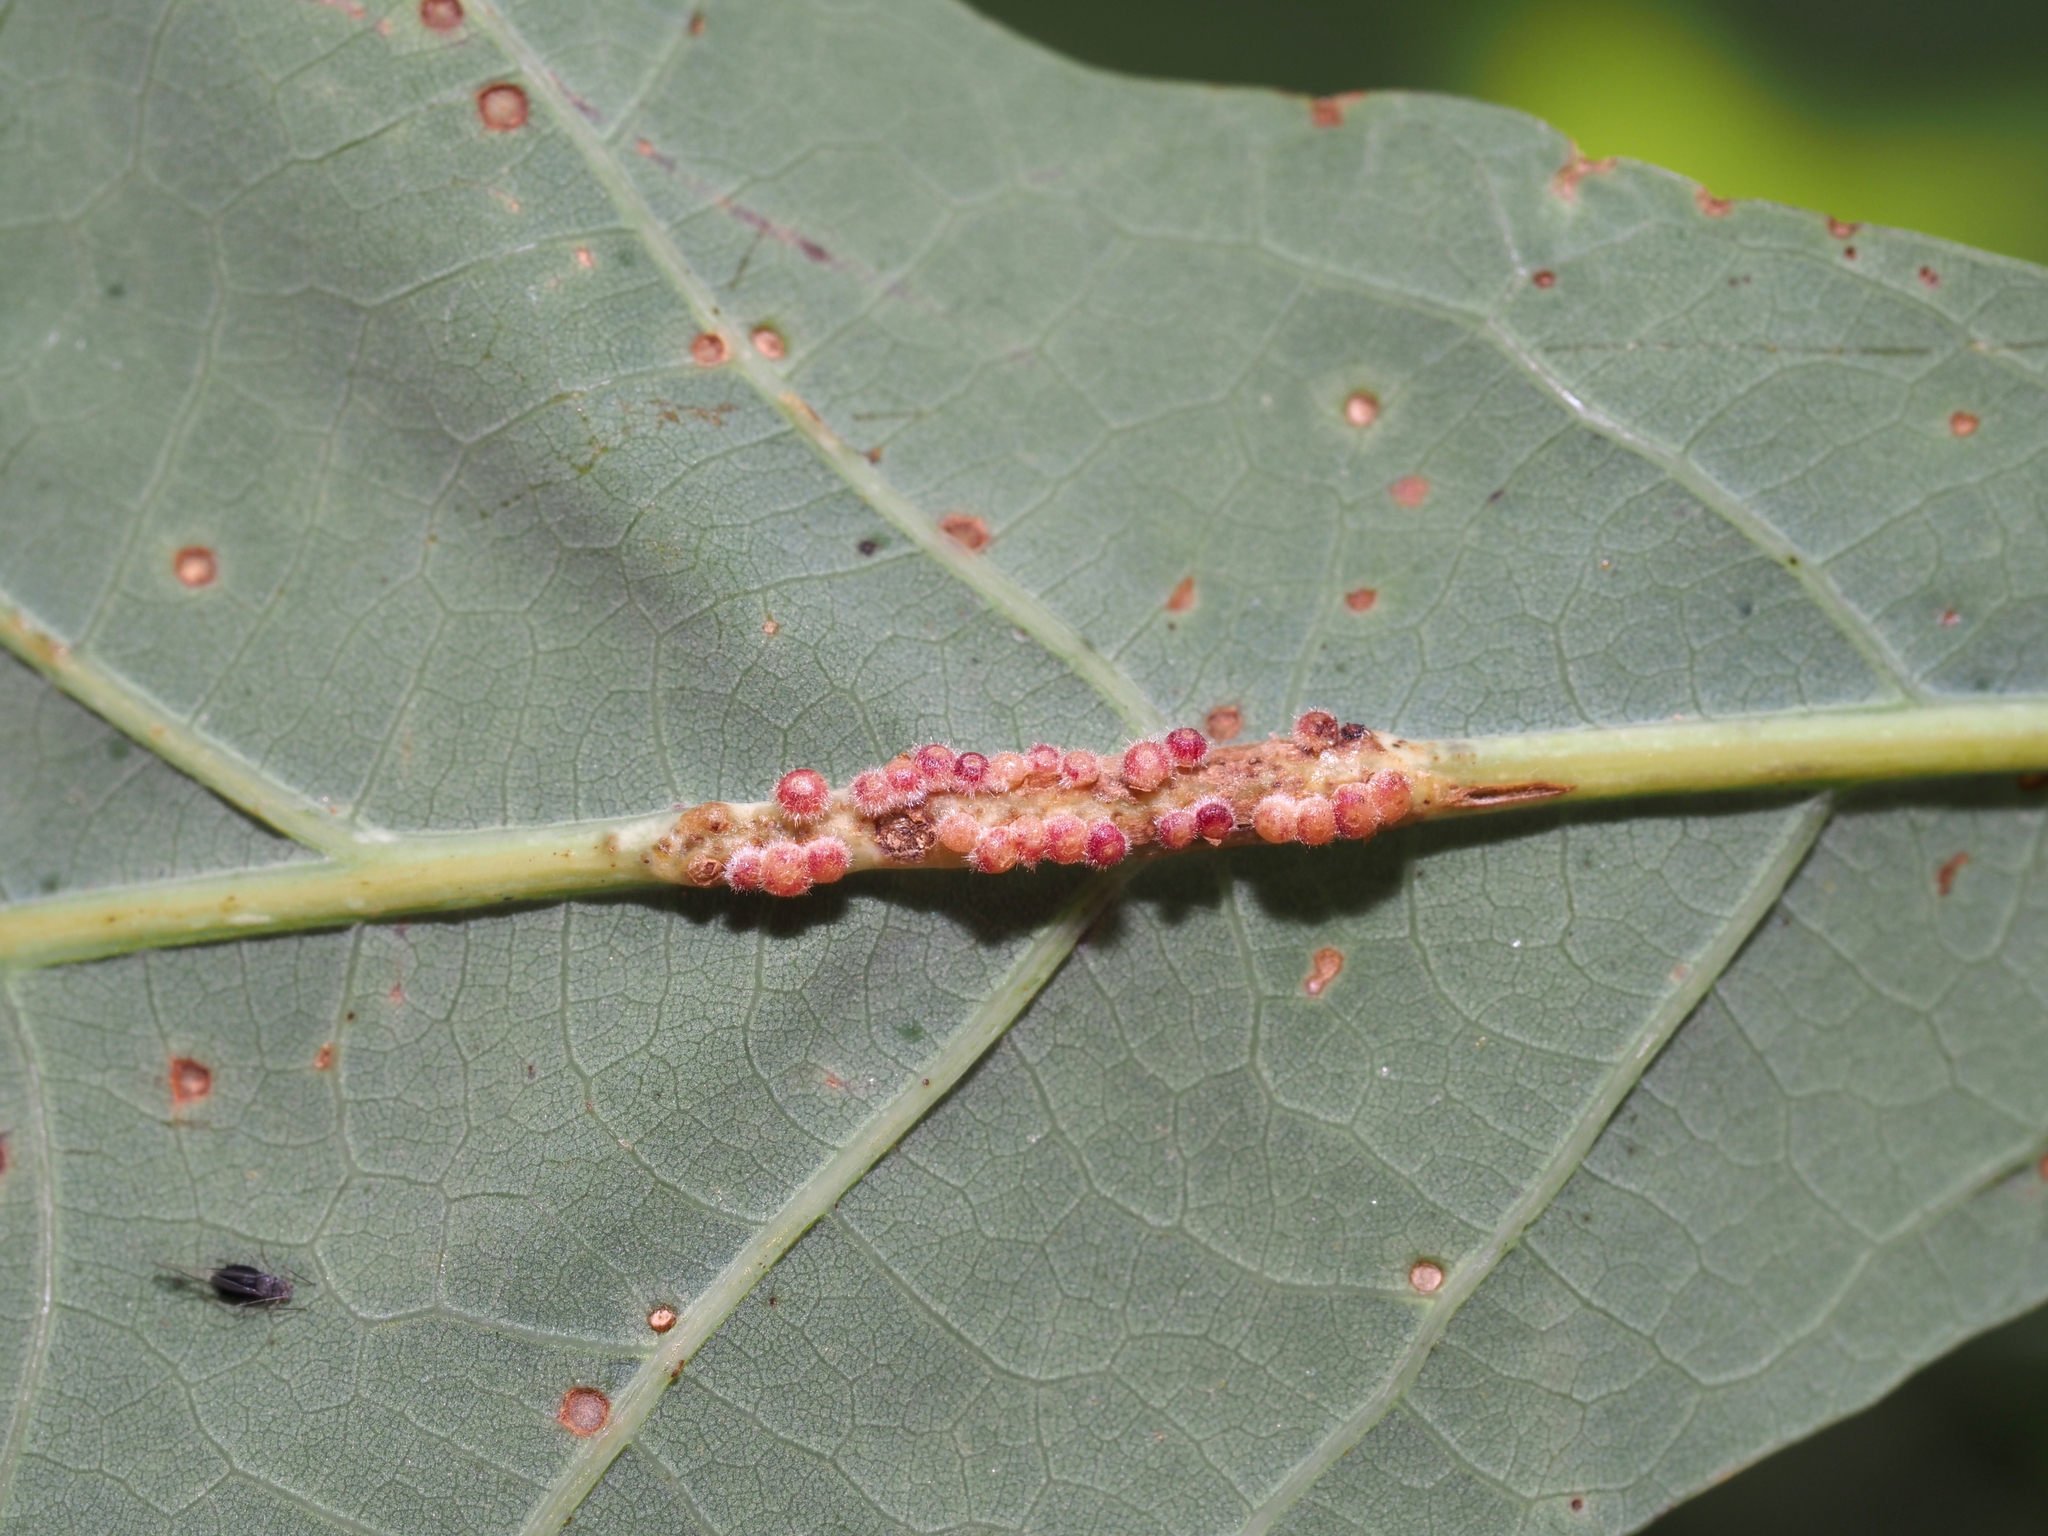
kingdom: Animalia
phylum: Arthropoda
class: Insecta
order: Hymenoptera
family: Cynipidae
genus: Andricus
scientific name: Andricus
